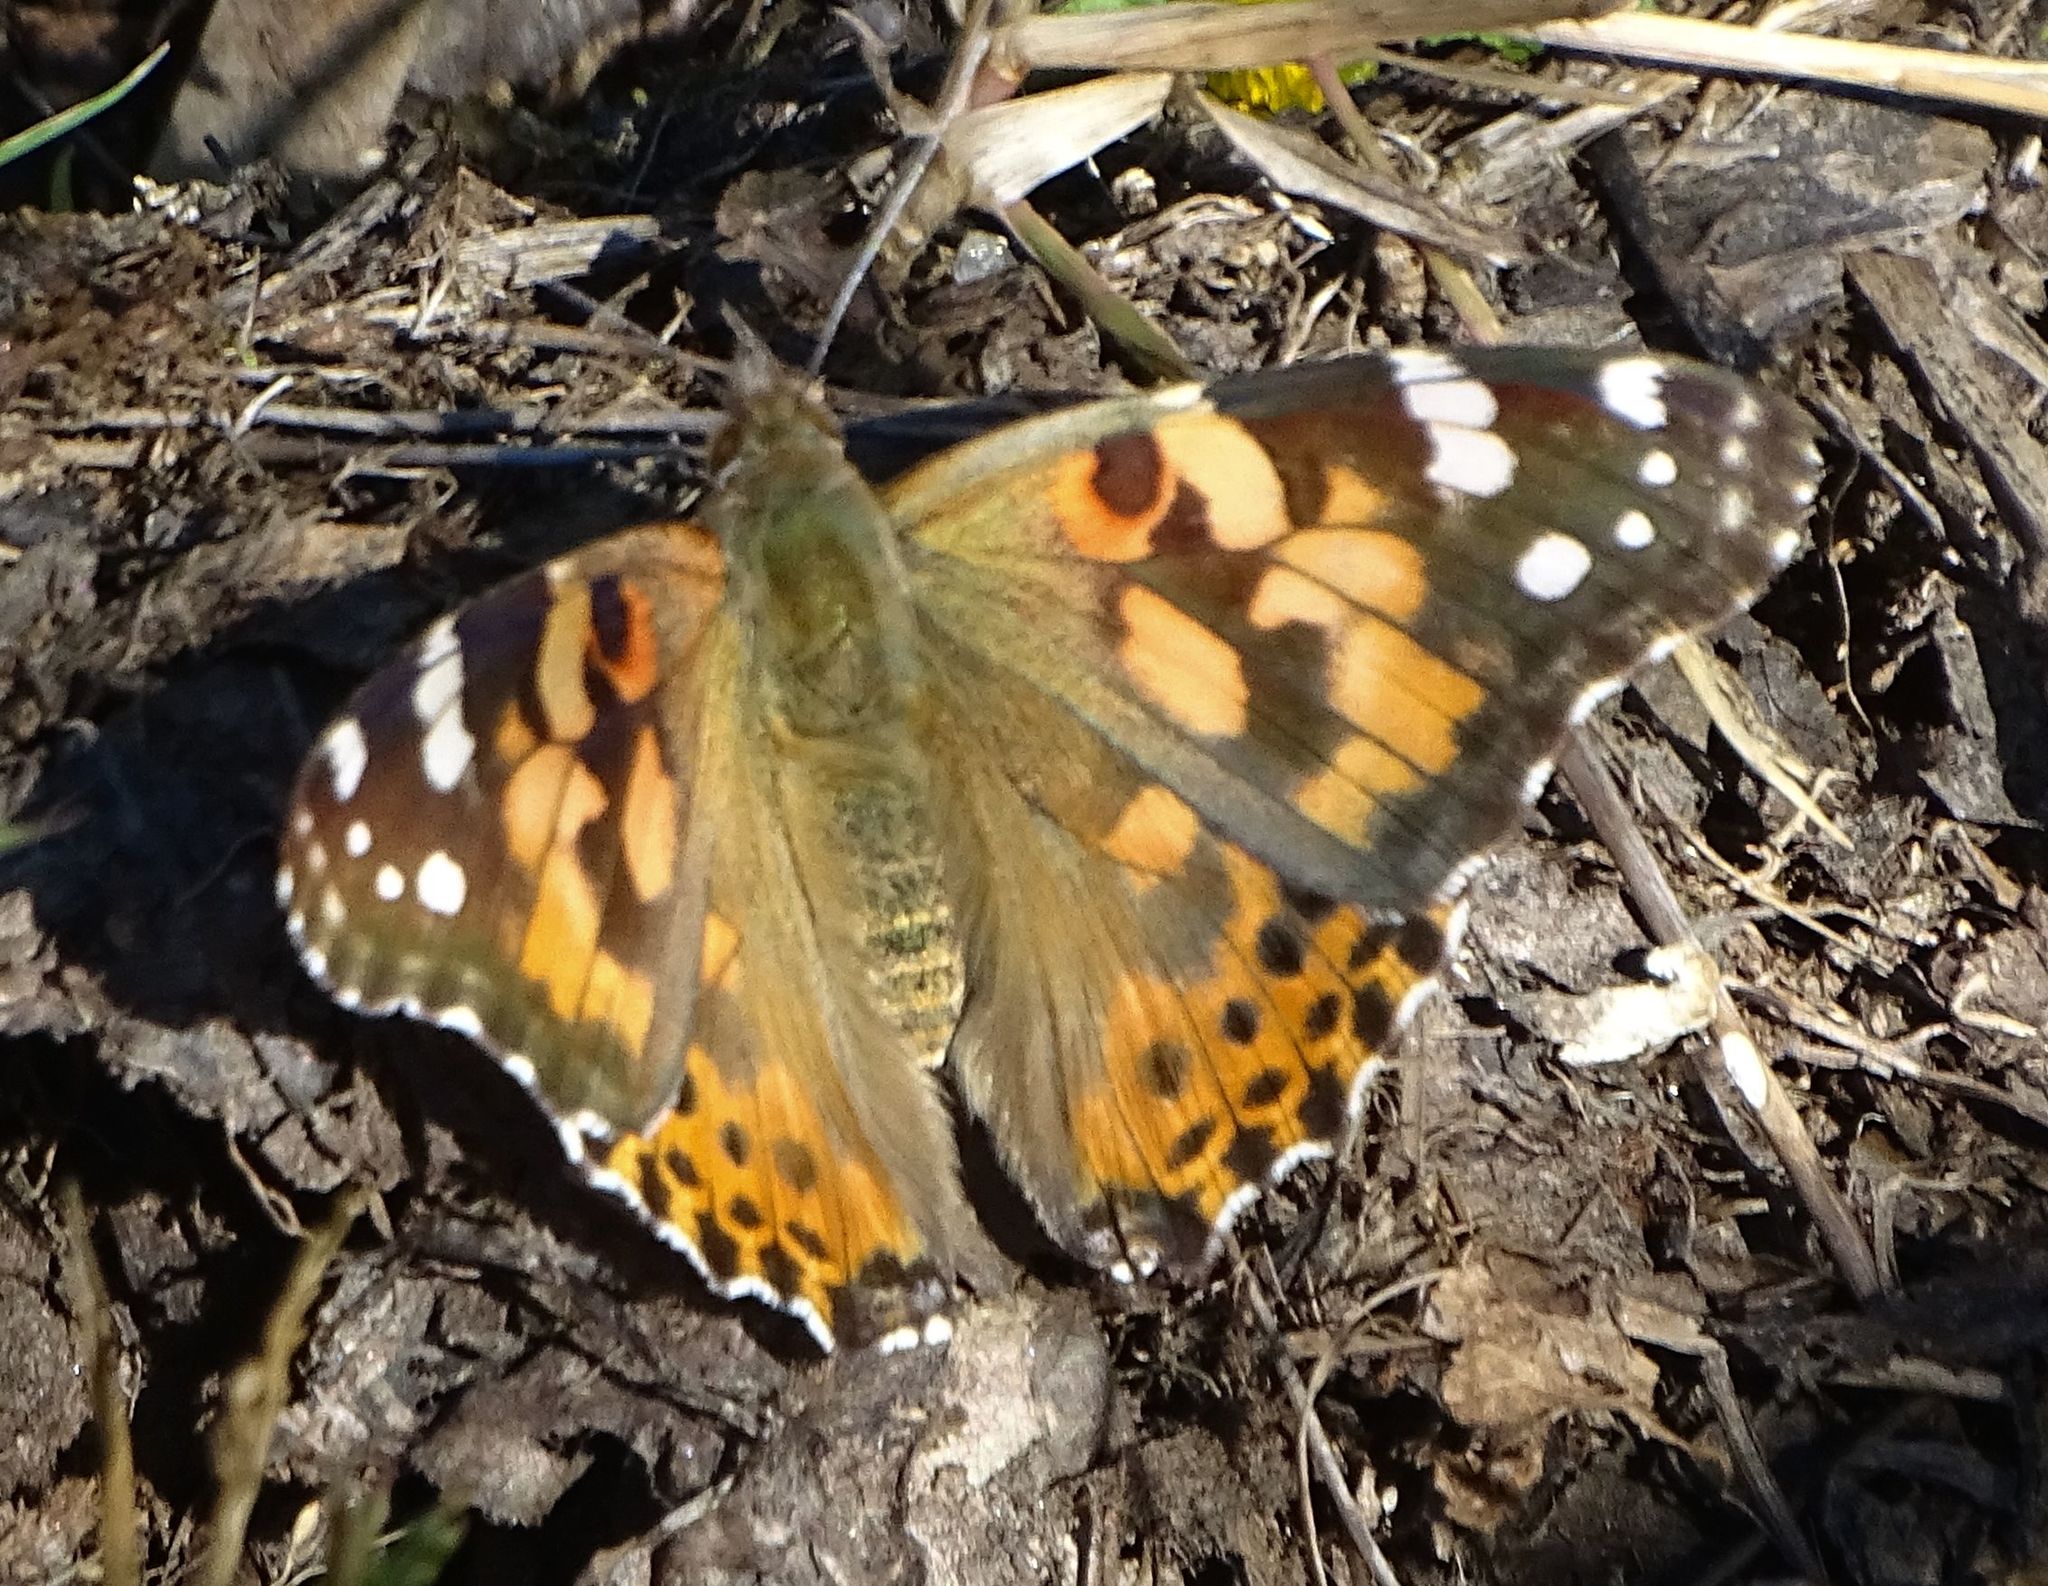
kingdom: Animalia
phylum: Arthropoda
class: Insecta
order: Lepidoptera
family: Nymphalidae
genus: Vanessa
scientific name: Vanessa cardui
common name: Painted lady
